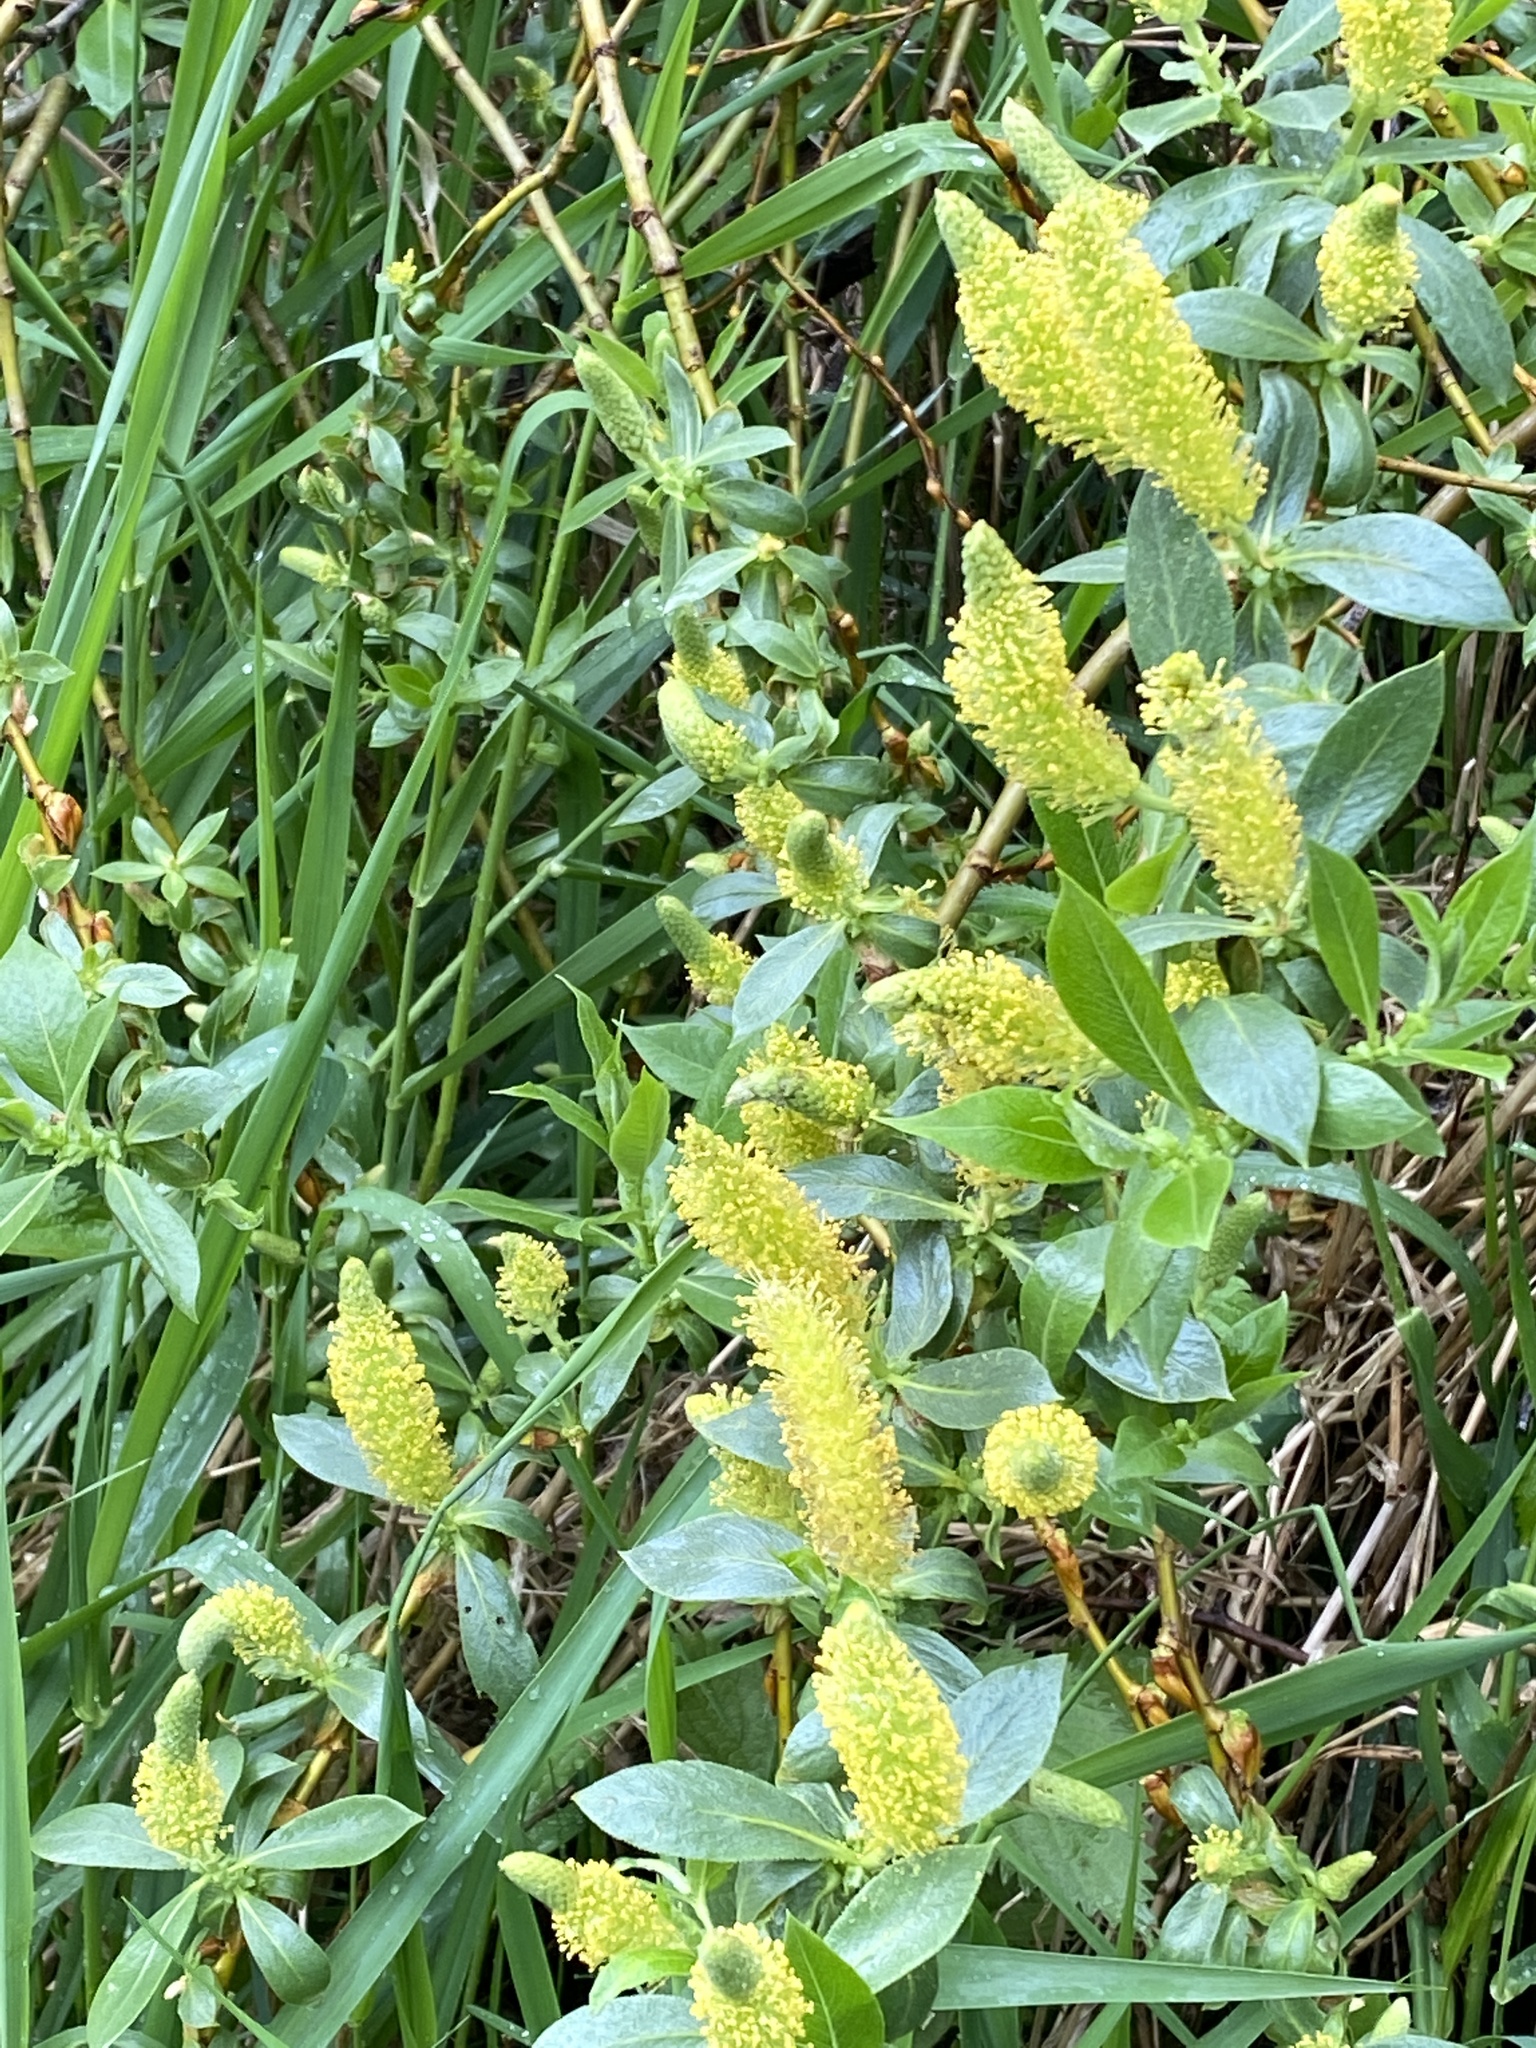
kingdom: Plantae
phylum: Tracheophyta
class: Magnoliopsida
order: Malpighiales
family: Salicaceae
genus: Salix
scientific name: Salix lucida
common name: Shining willow
